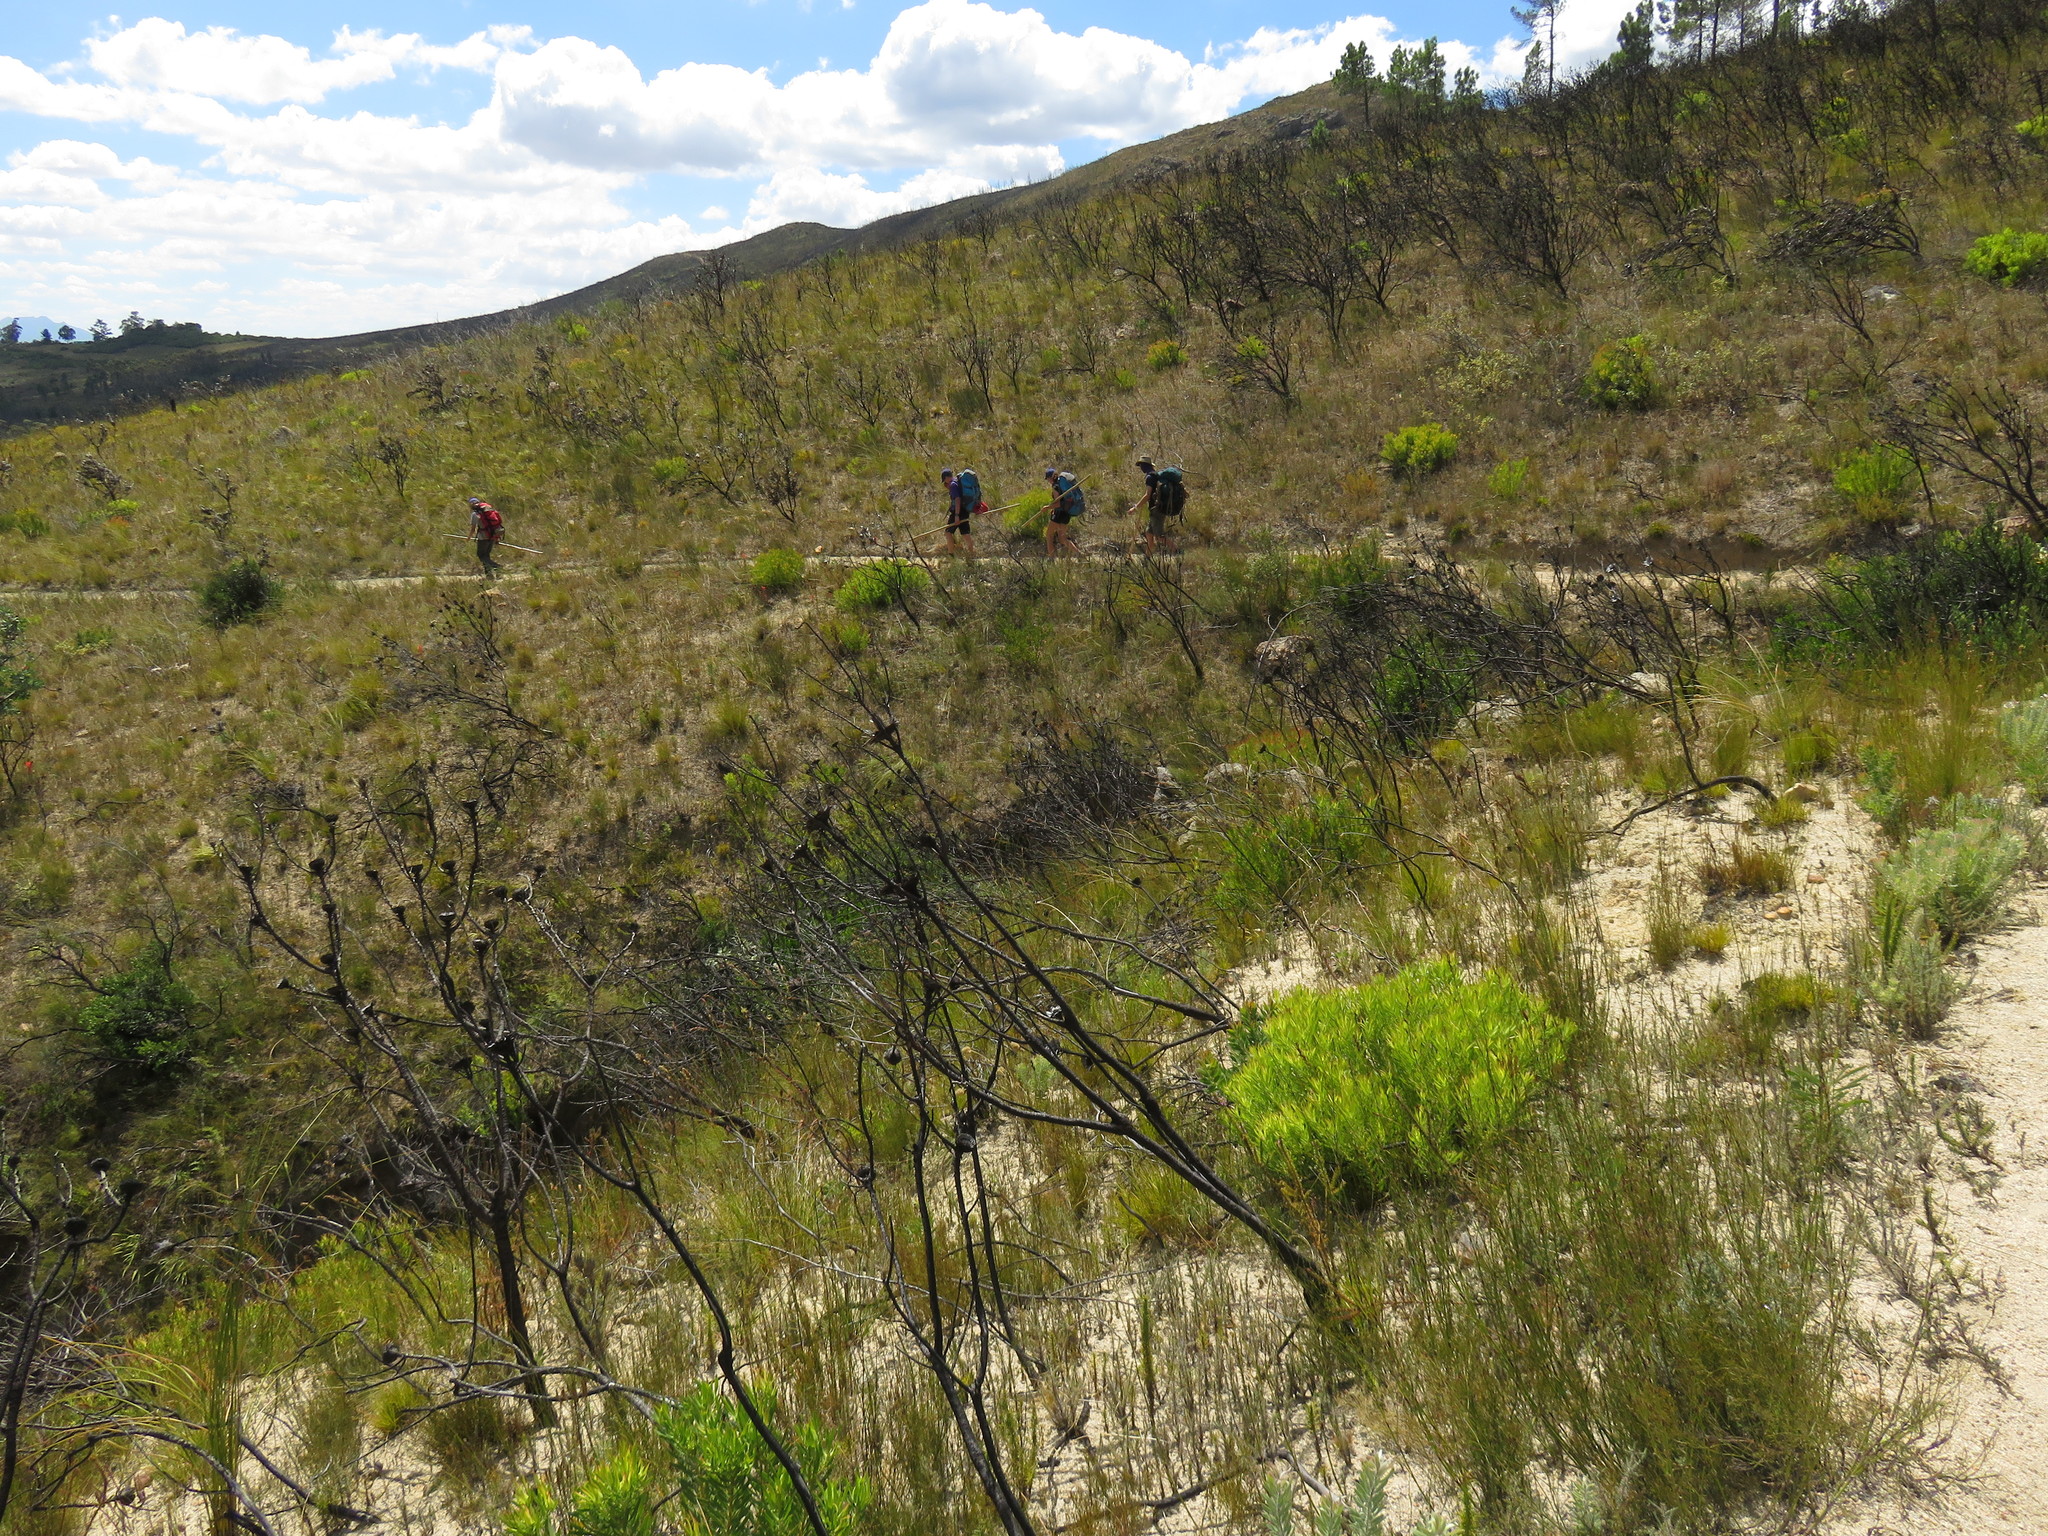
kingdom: Plantae
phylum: Tracheophyta
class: Magnoliopsida
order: Proteales
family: Proteaceae
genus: Leucadendron
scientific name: Leucadendron salignum
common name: Common sunshine conebush
